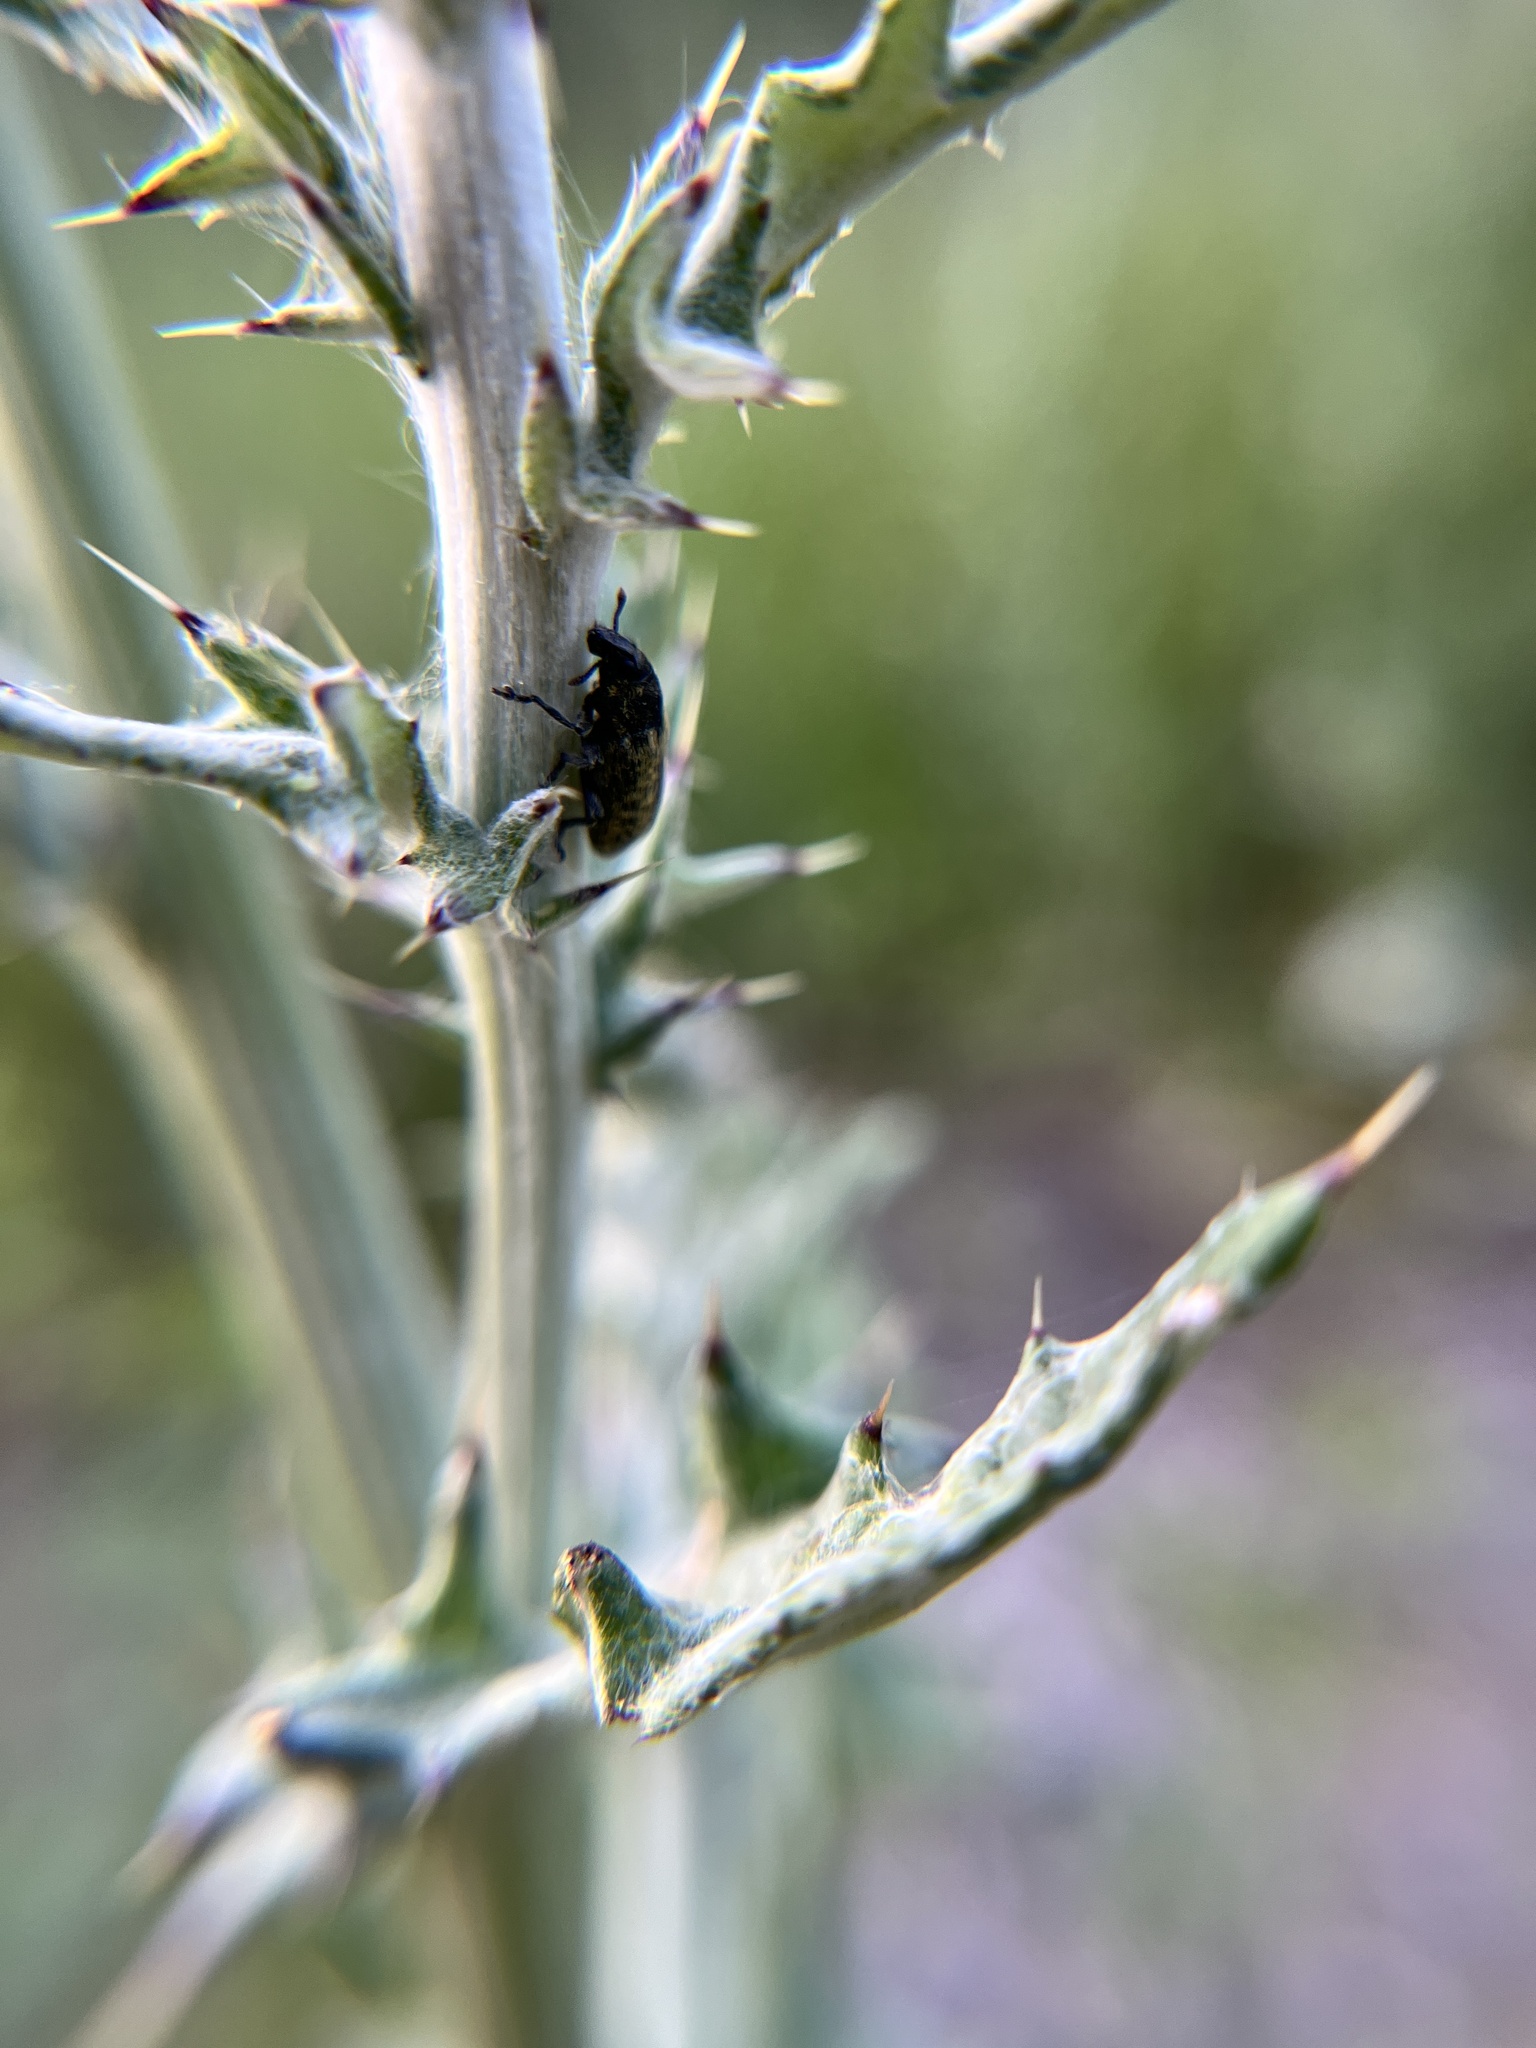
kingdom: Animalia
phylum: Arthropoda
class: Insecta
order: Coleoptera
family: Curculionidae
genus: Rhinocyllus
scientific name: Rhinocyllus conicus
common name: Weevil
